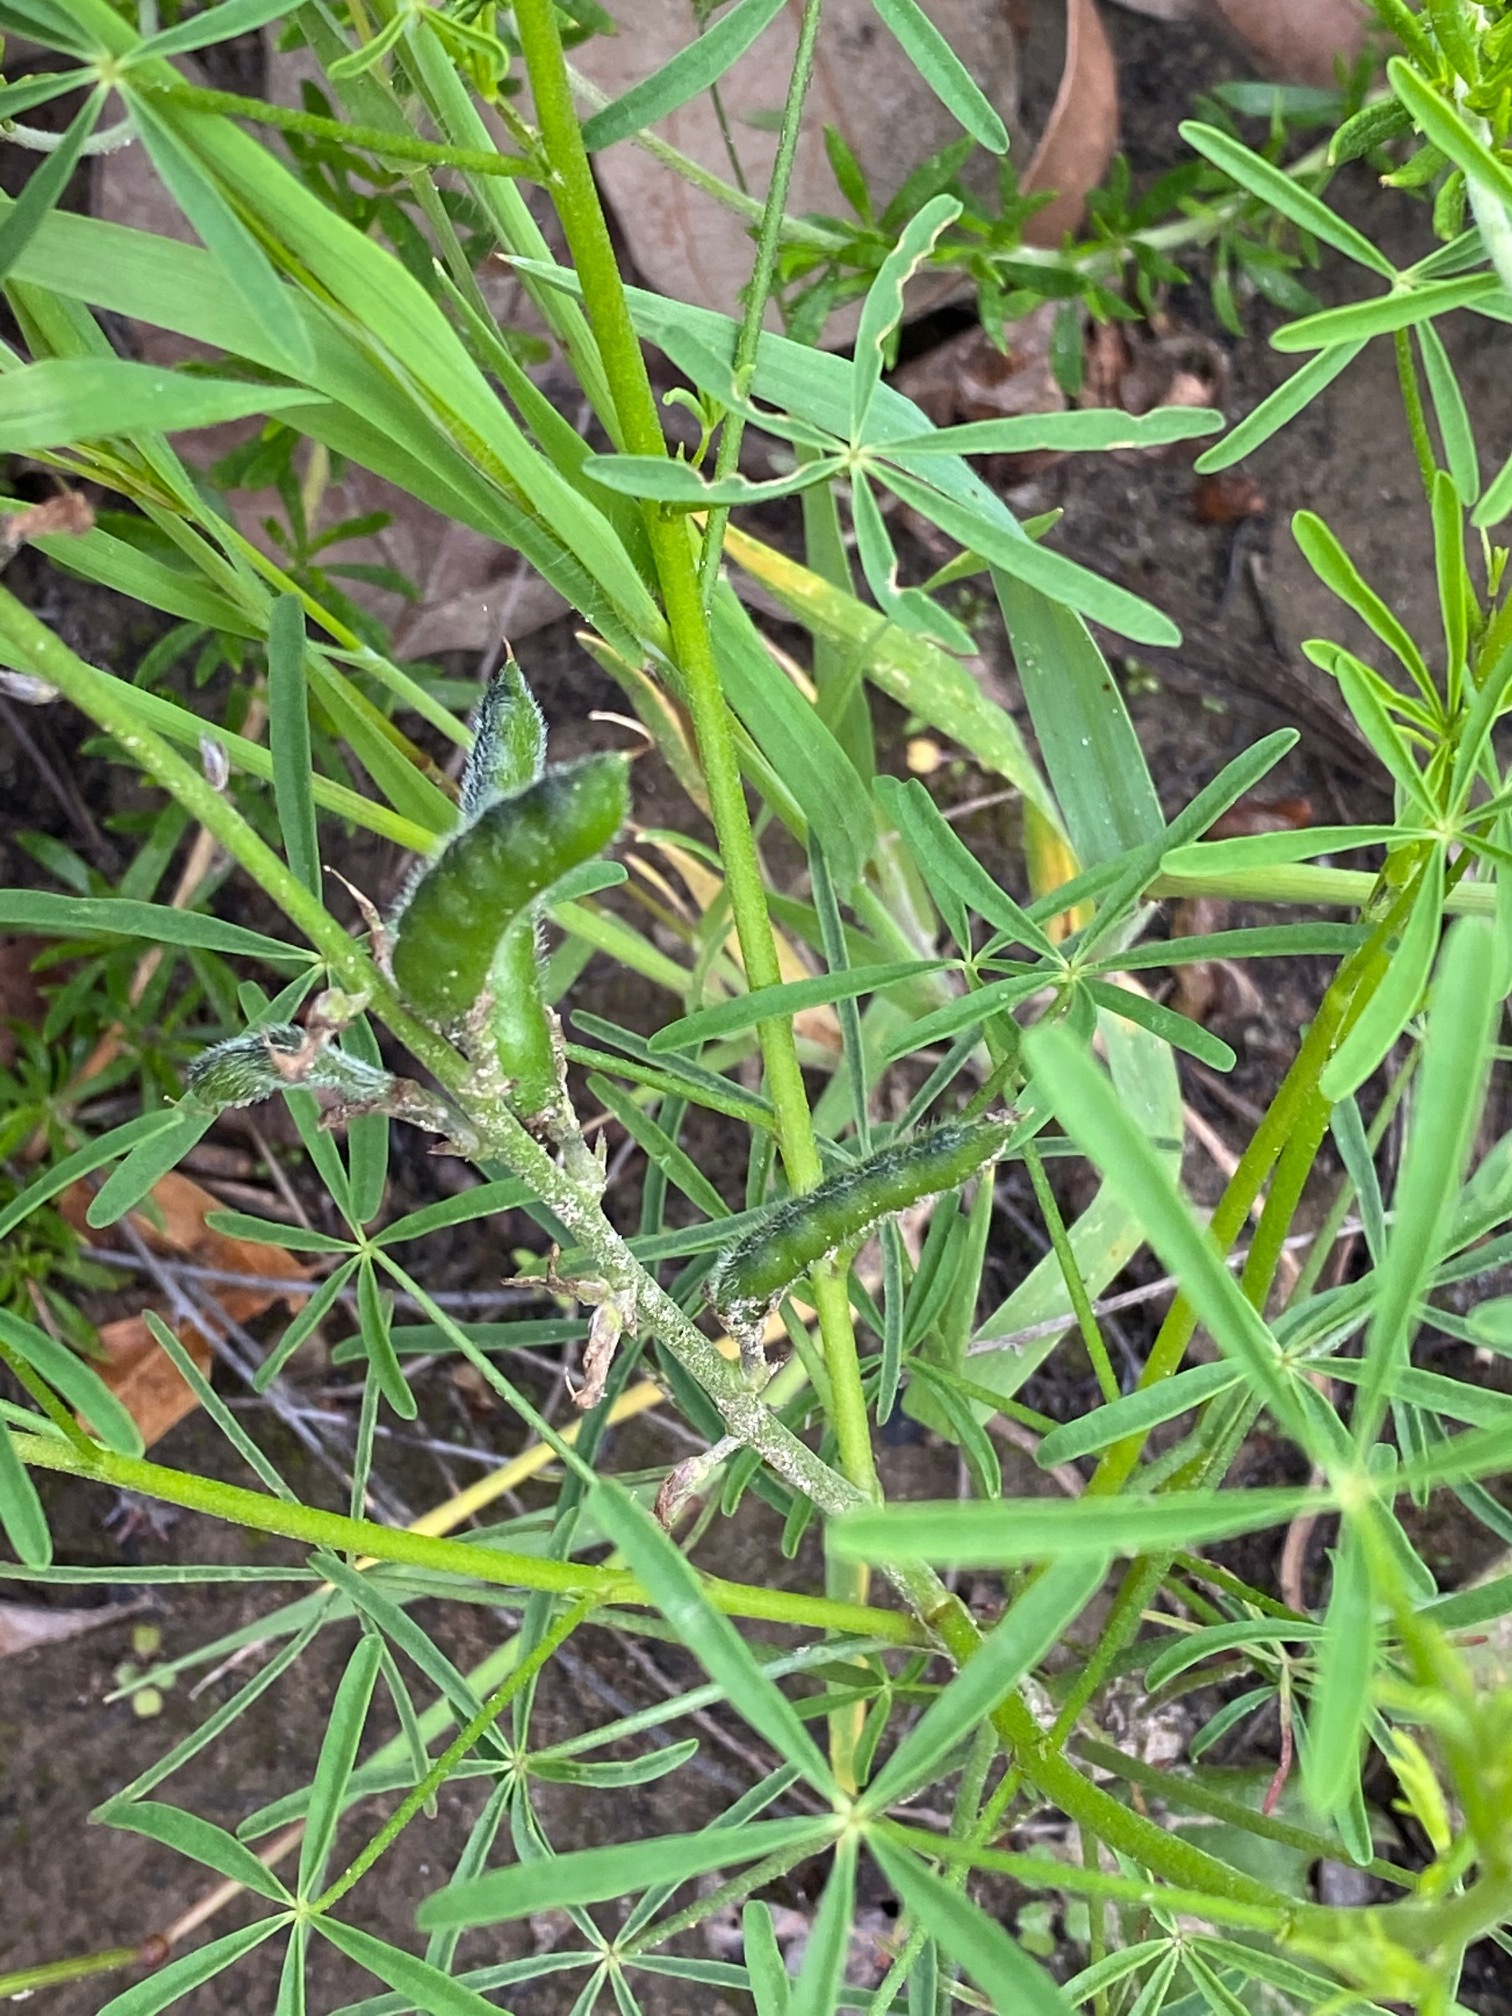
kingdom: Plantae
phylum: Tracheophyta
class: Magnoliopsida
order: Fabales
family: Fabaceae
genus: Lupinus
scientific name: Lupinus truncatus
